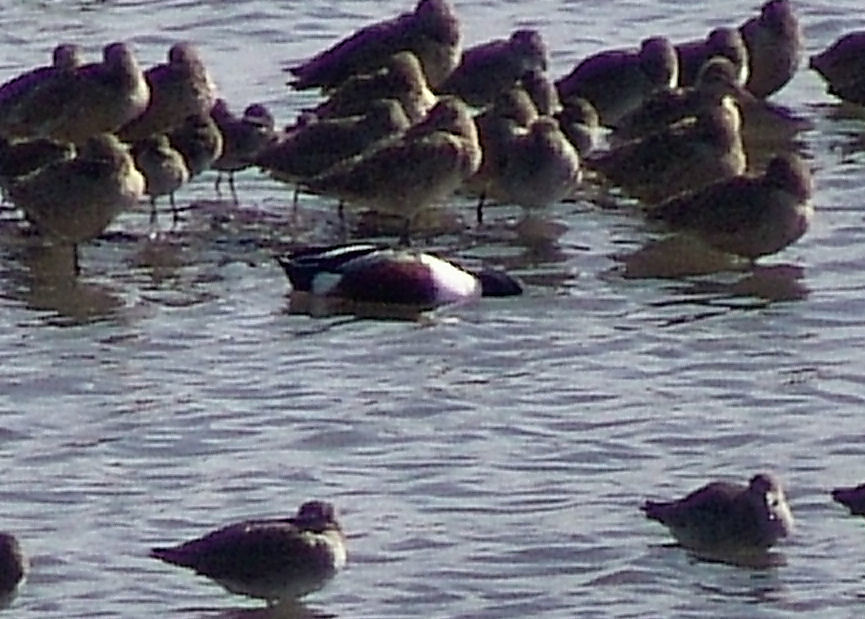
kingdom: Animalia
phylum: Chordata
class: Aves
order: Anseriformes
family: Anatidae
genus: Spatula
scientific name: Spatula clypeata
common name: Northern shoveler
